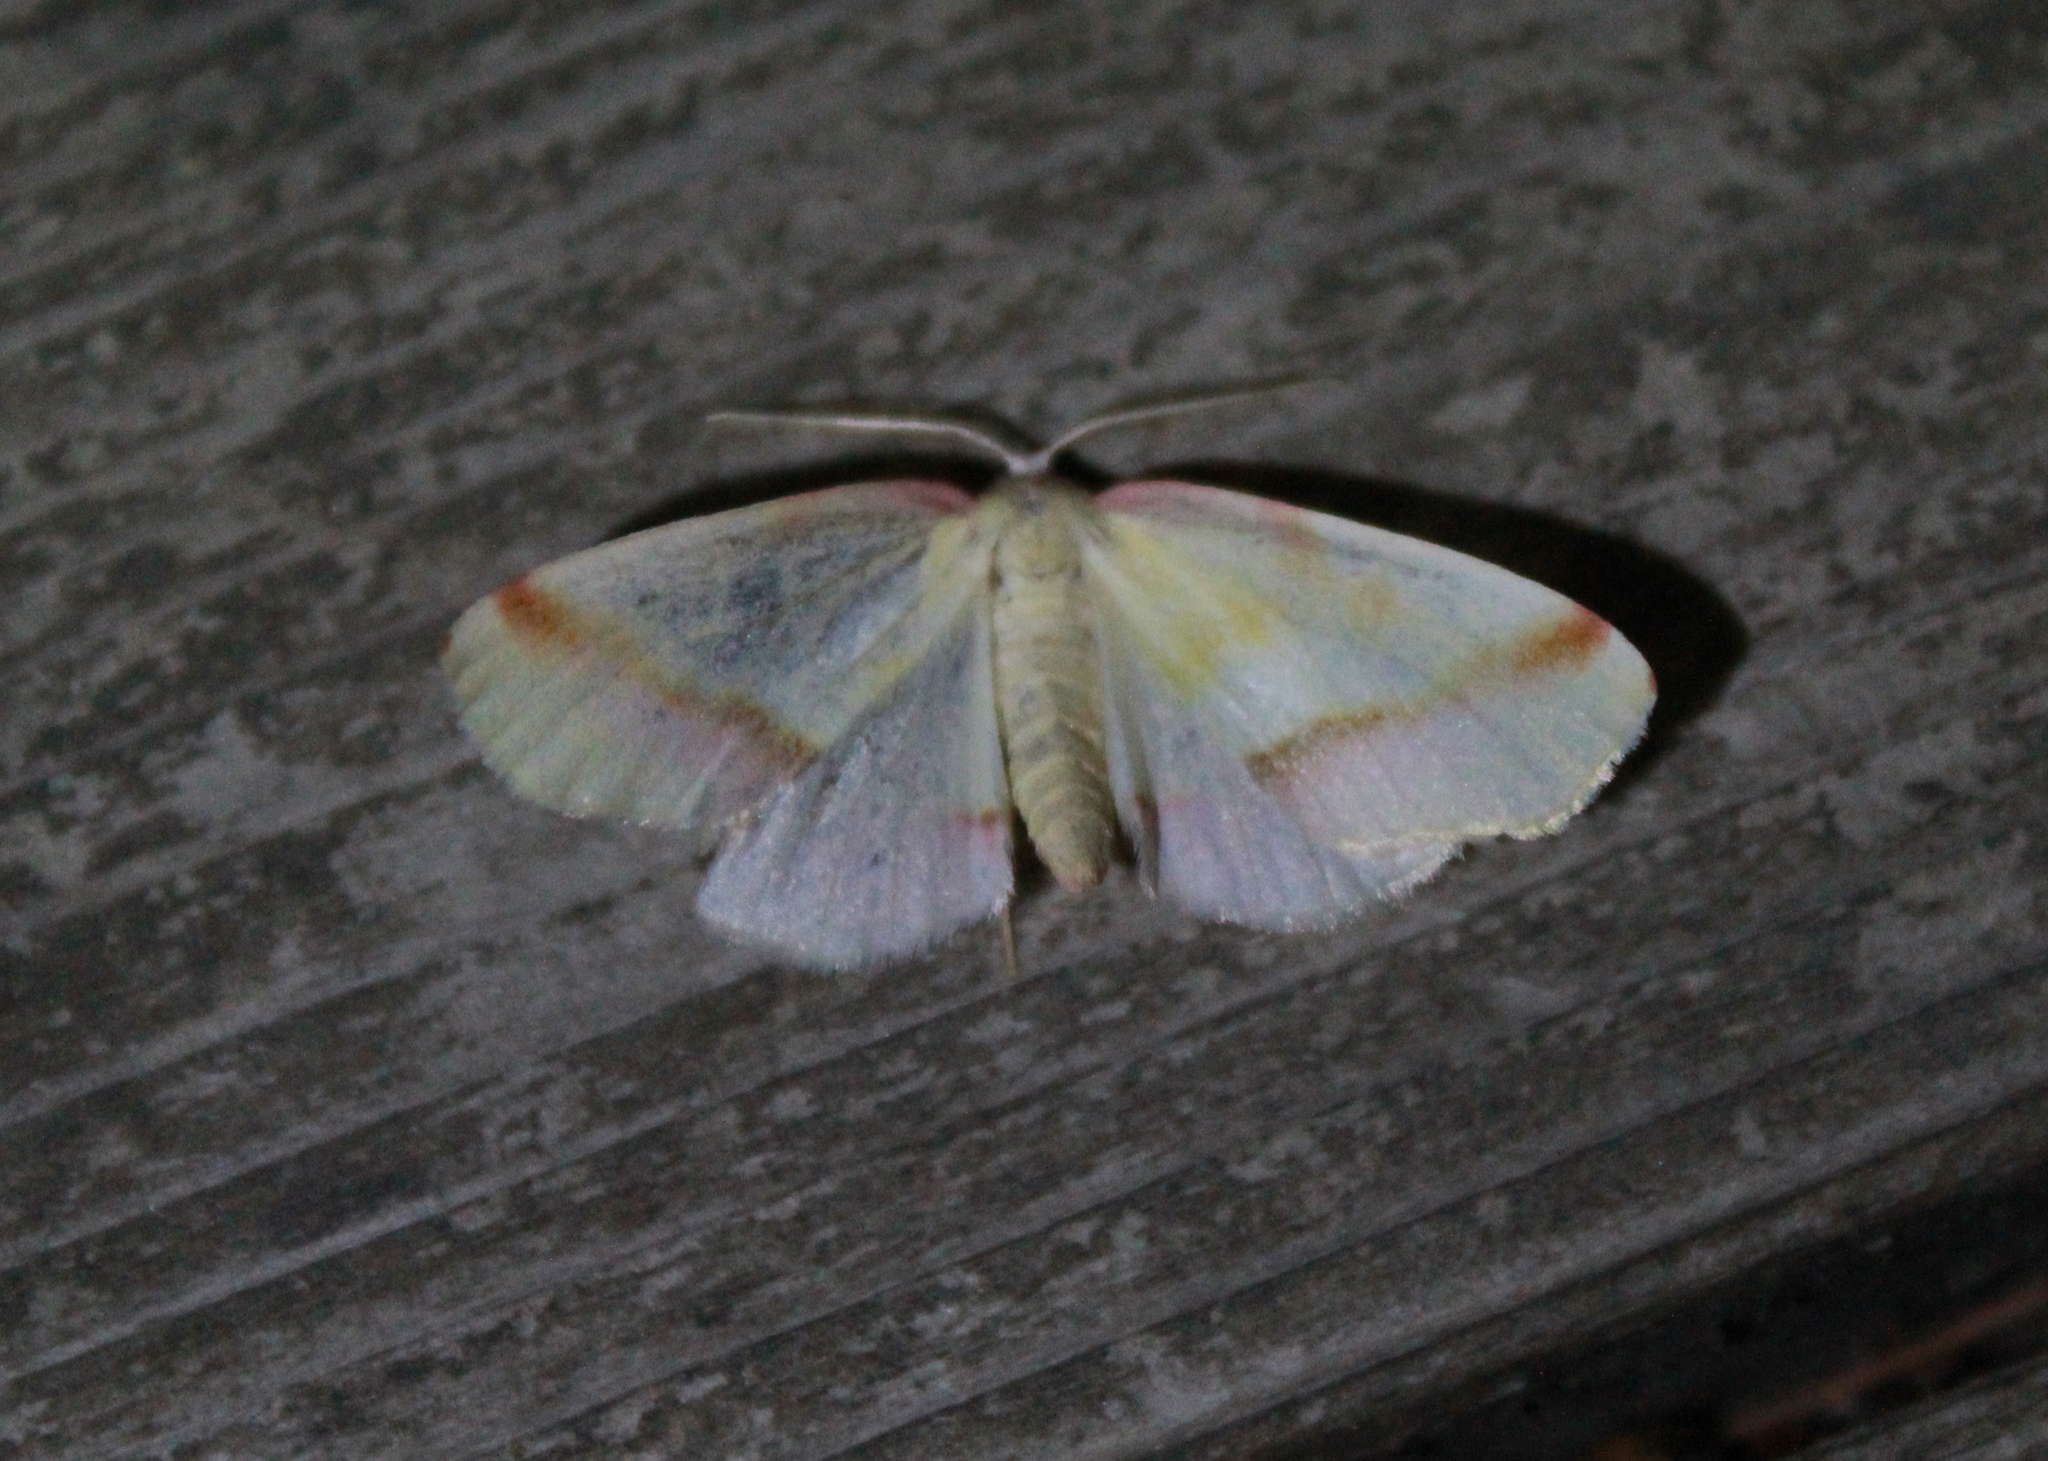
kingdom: Animalia
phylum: Arthropoda
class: Insecta
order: Lepidoptera
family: Geometridae
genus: Plagodis
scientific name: Plagodis serinaria
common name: Lemon plagodis
